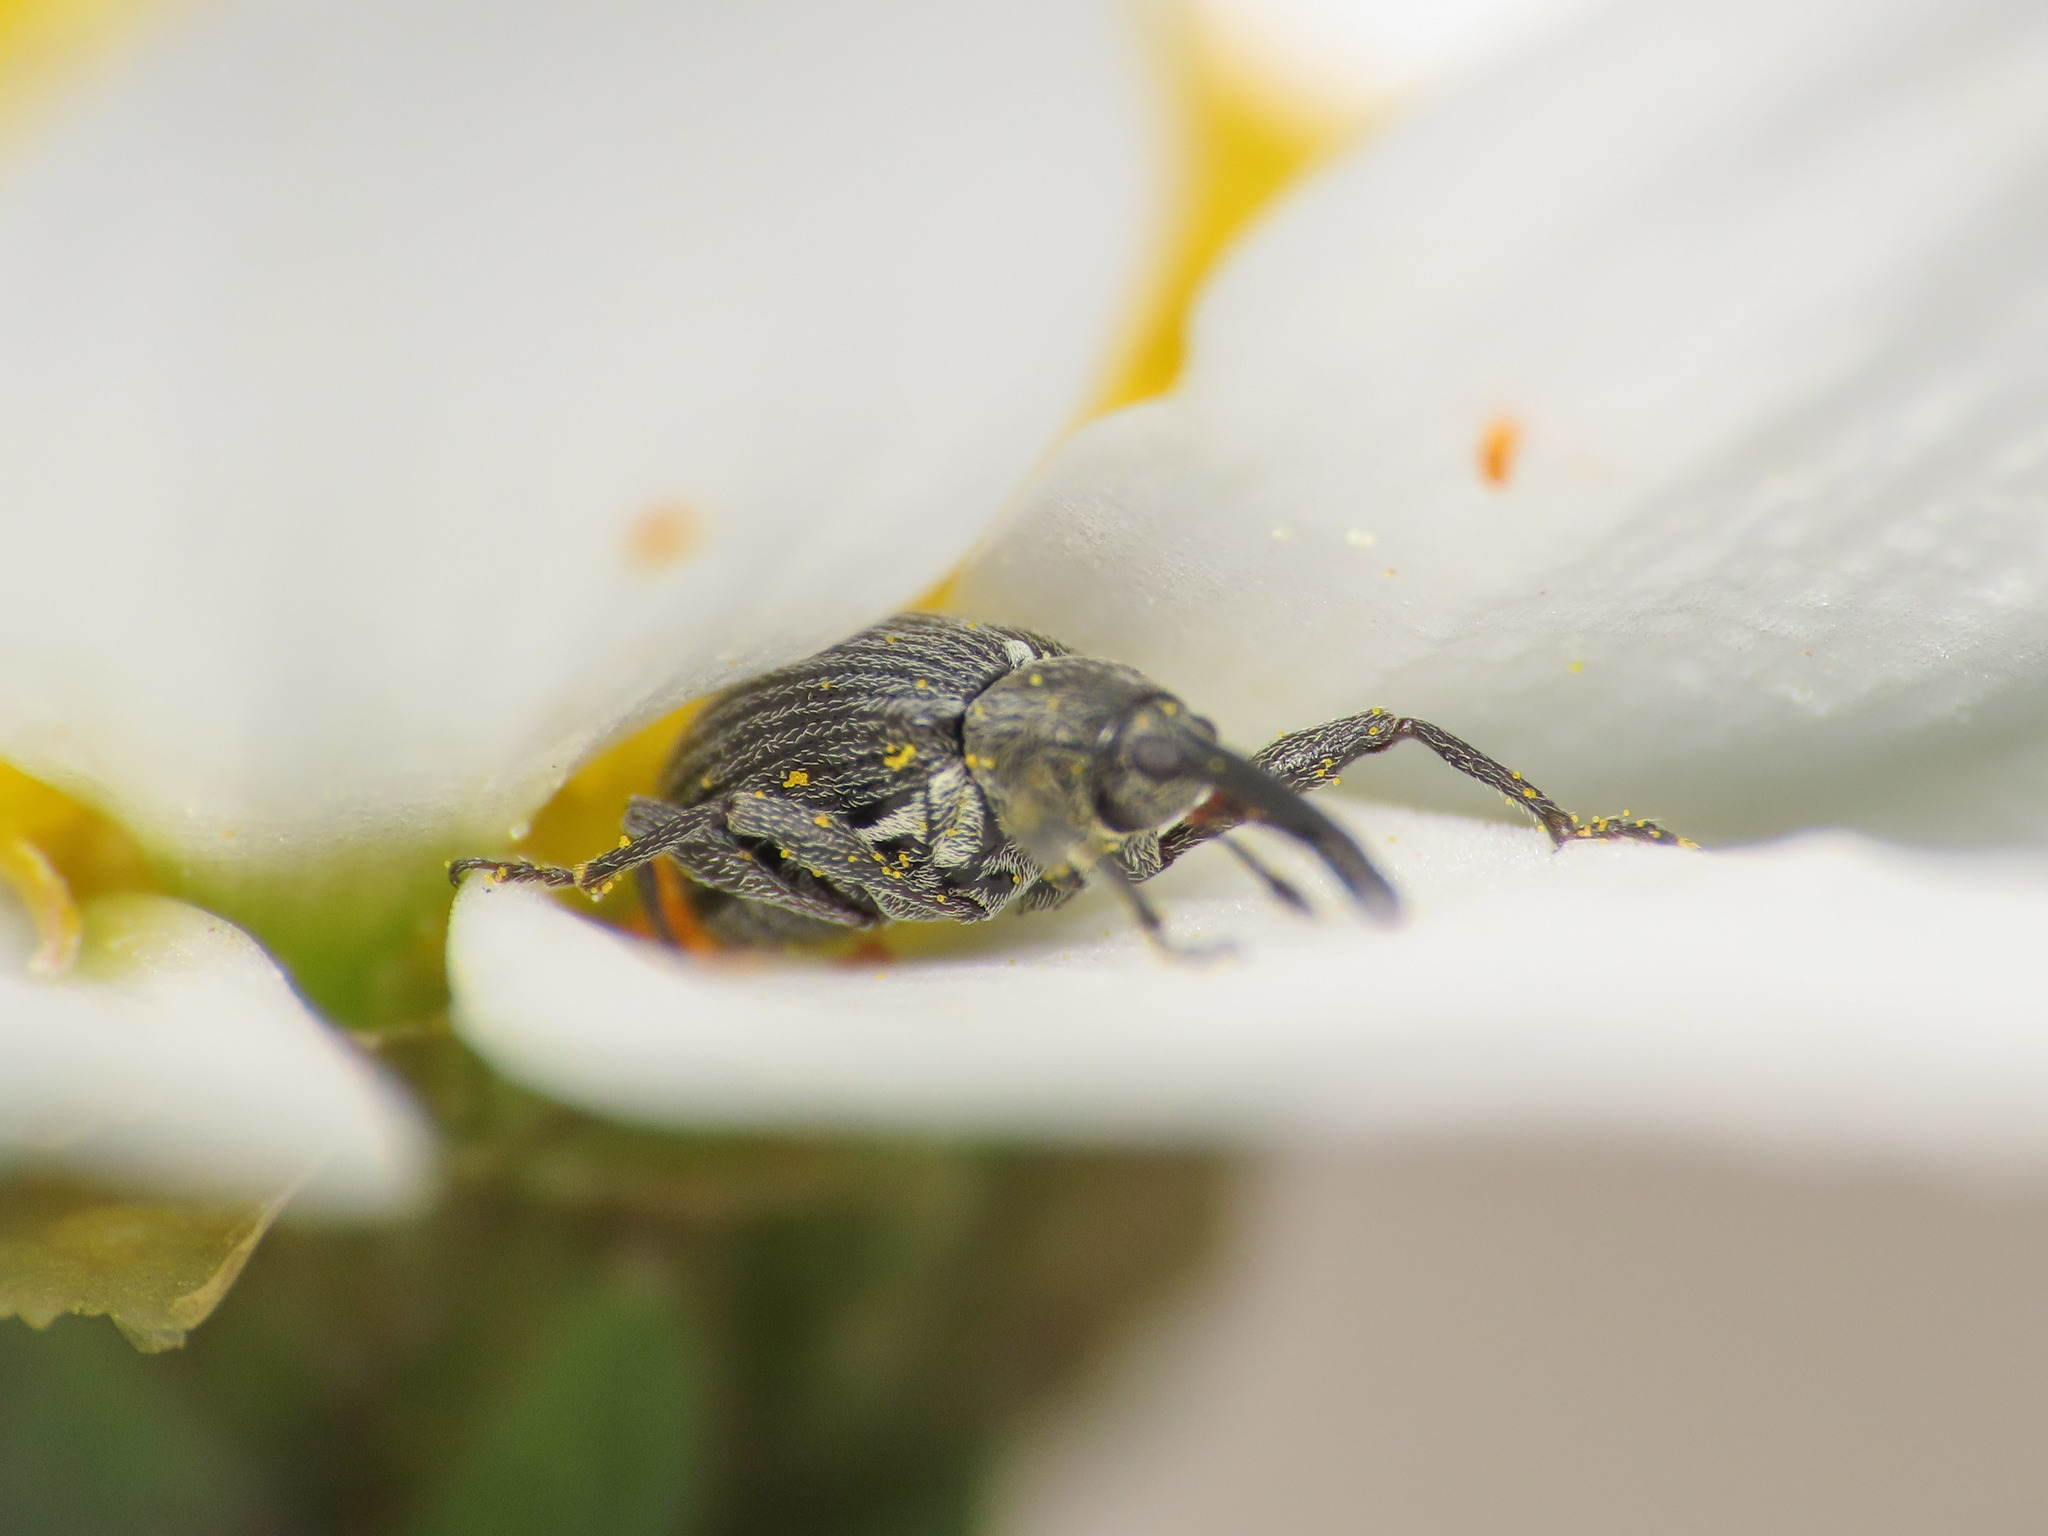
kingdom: Animalia
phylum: Arthropoda
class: Insecta
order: Coleoptera
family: Curculionidae
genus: Anthonomus
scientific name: Anthonomus rubi
